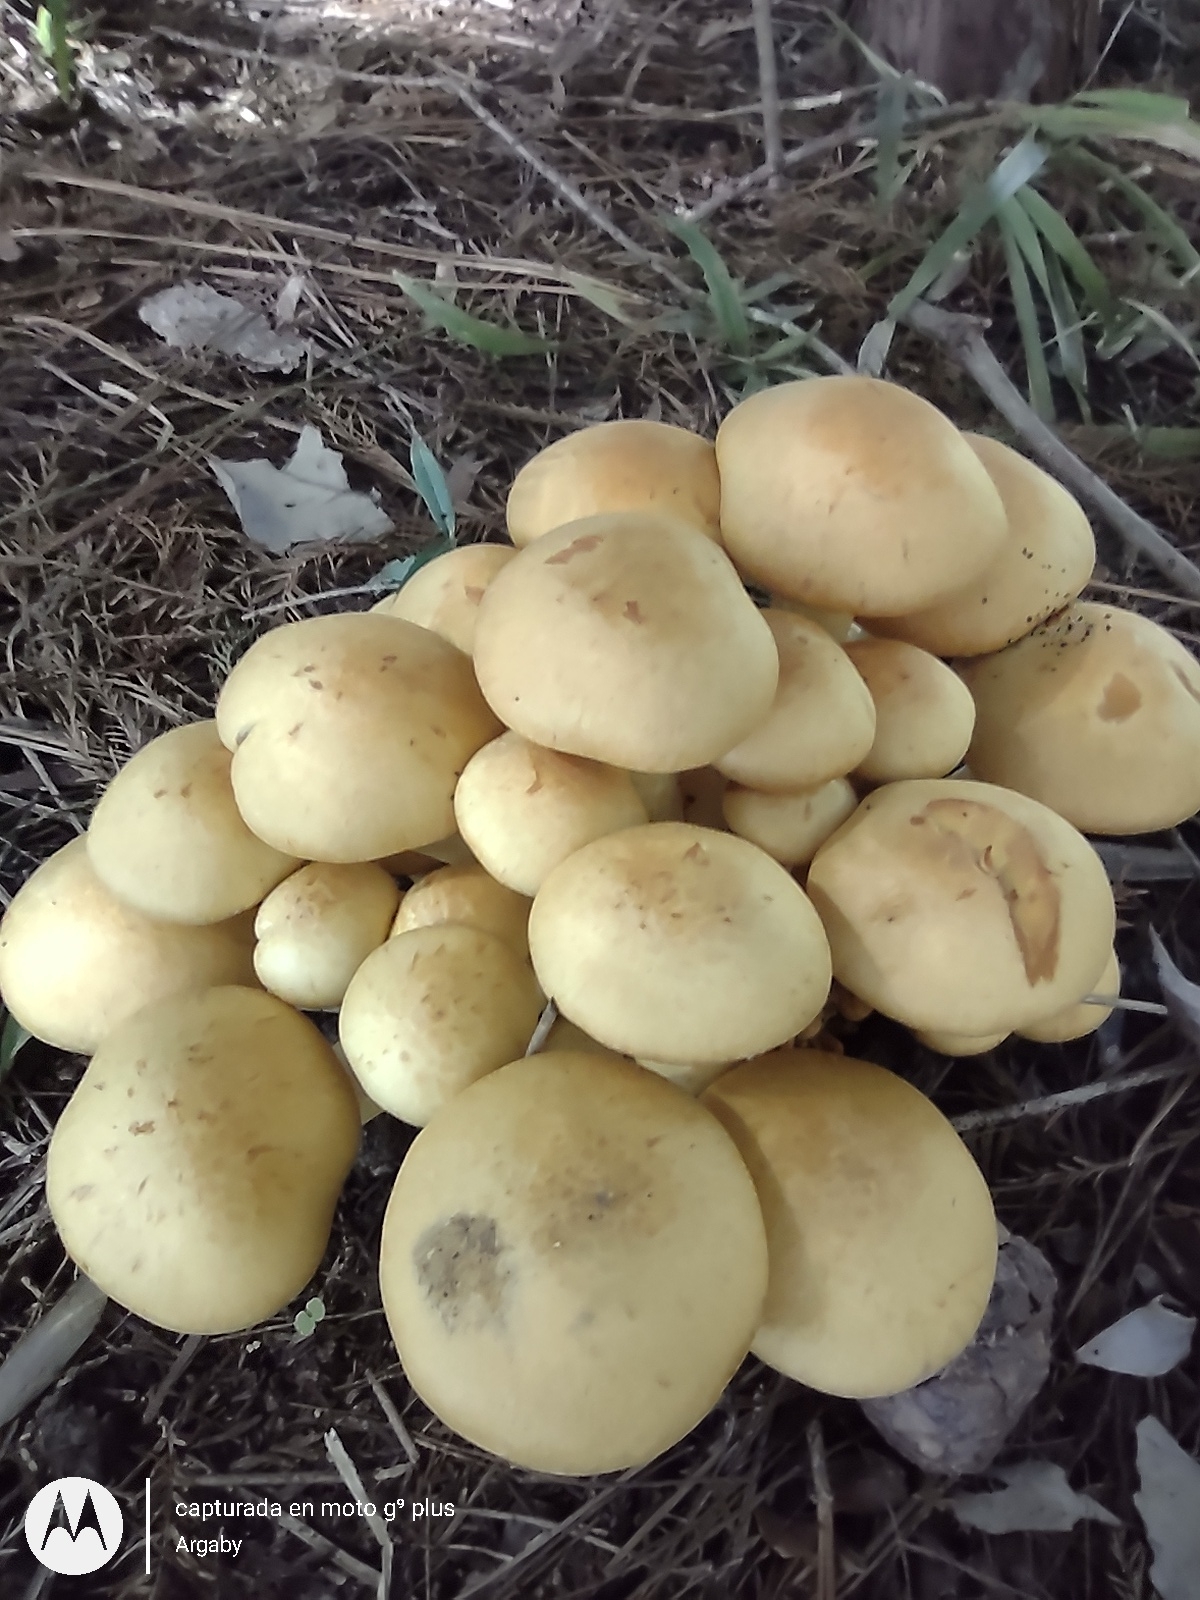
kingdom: Fungi
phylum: Basidiomycota
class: Agaricomycetes
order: Agaricales
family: Hymenogastraceae
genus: Gymnopilus
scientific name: Gymnopilus junonius
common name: Spectacular rustgill
